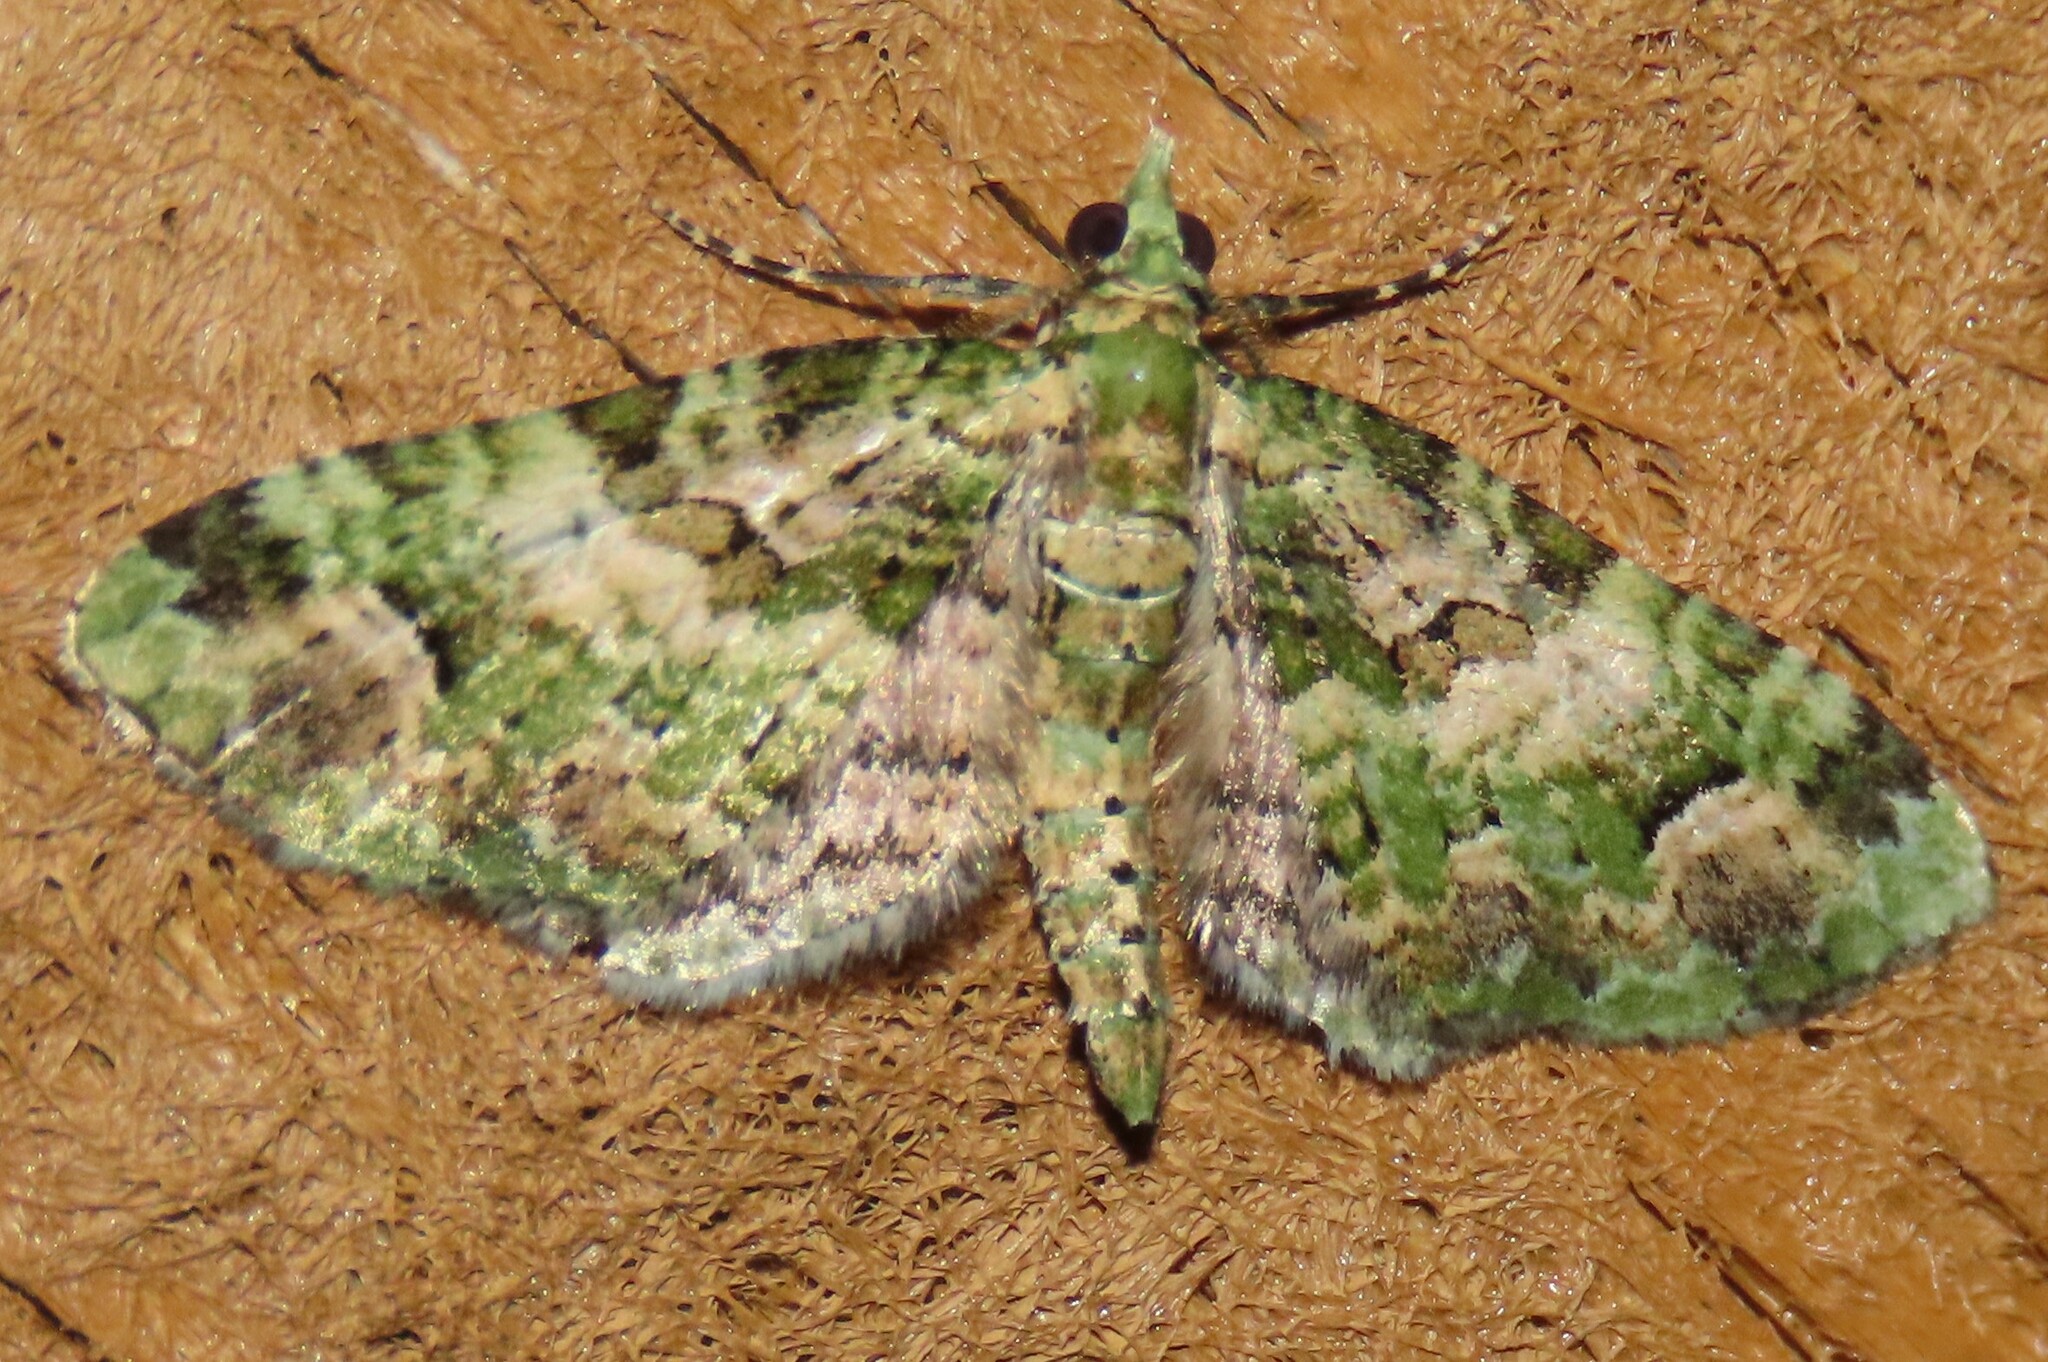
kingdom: Animalia
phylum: Arthropoda
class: Insecta
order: Lepidoptera
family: Geometridae
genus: Pasiphila
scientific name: Pasiphila semochlora
